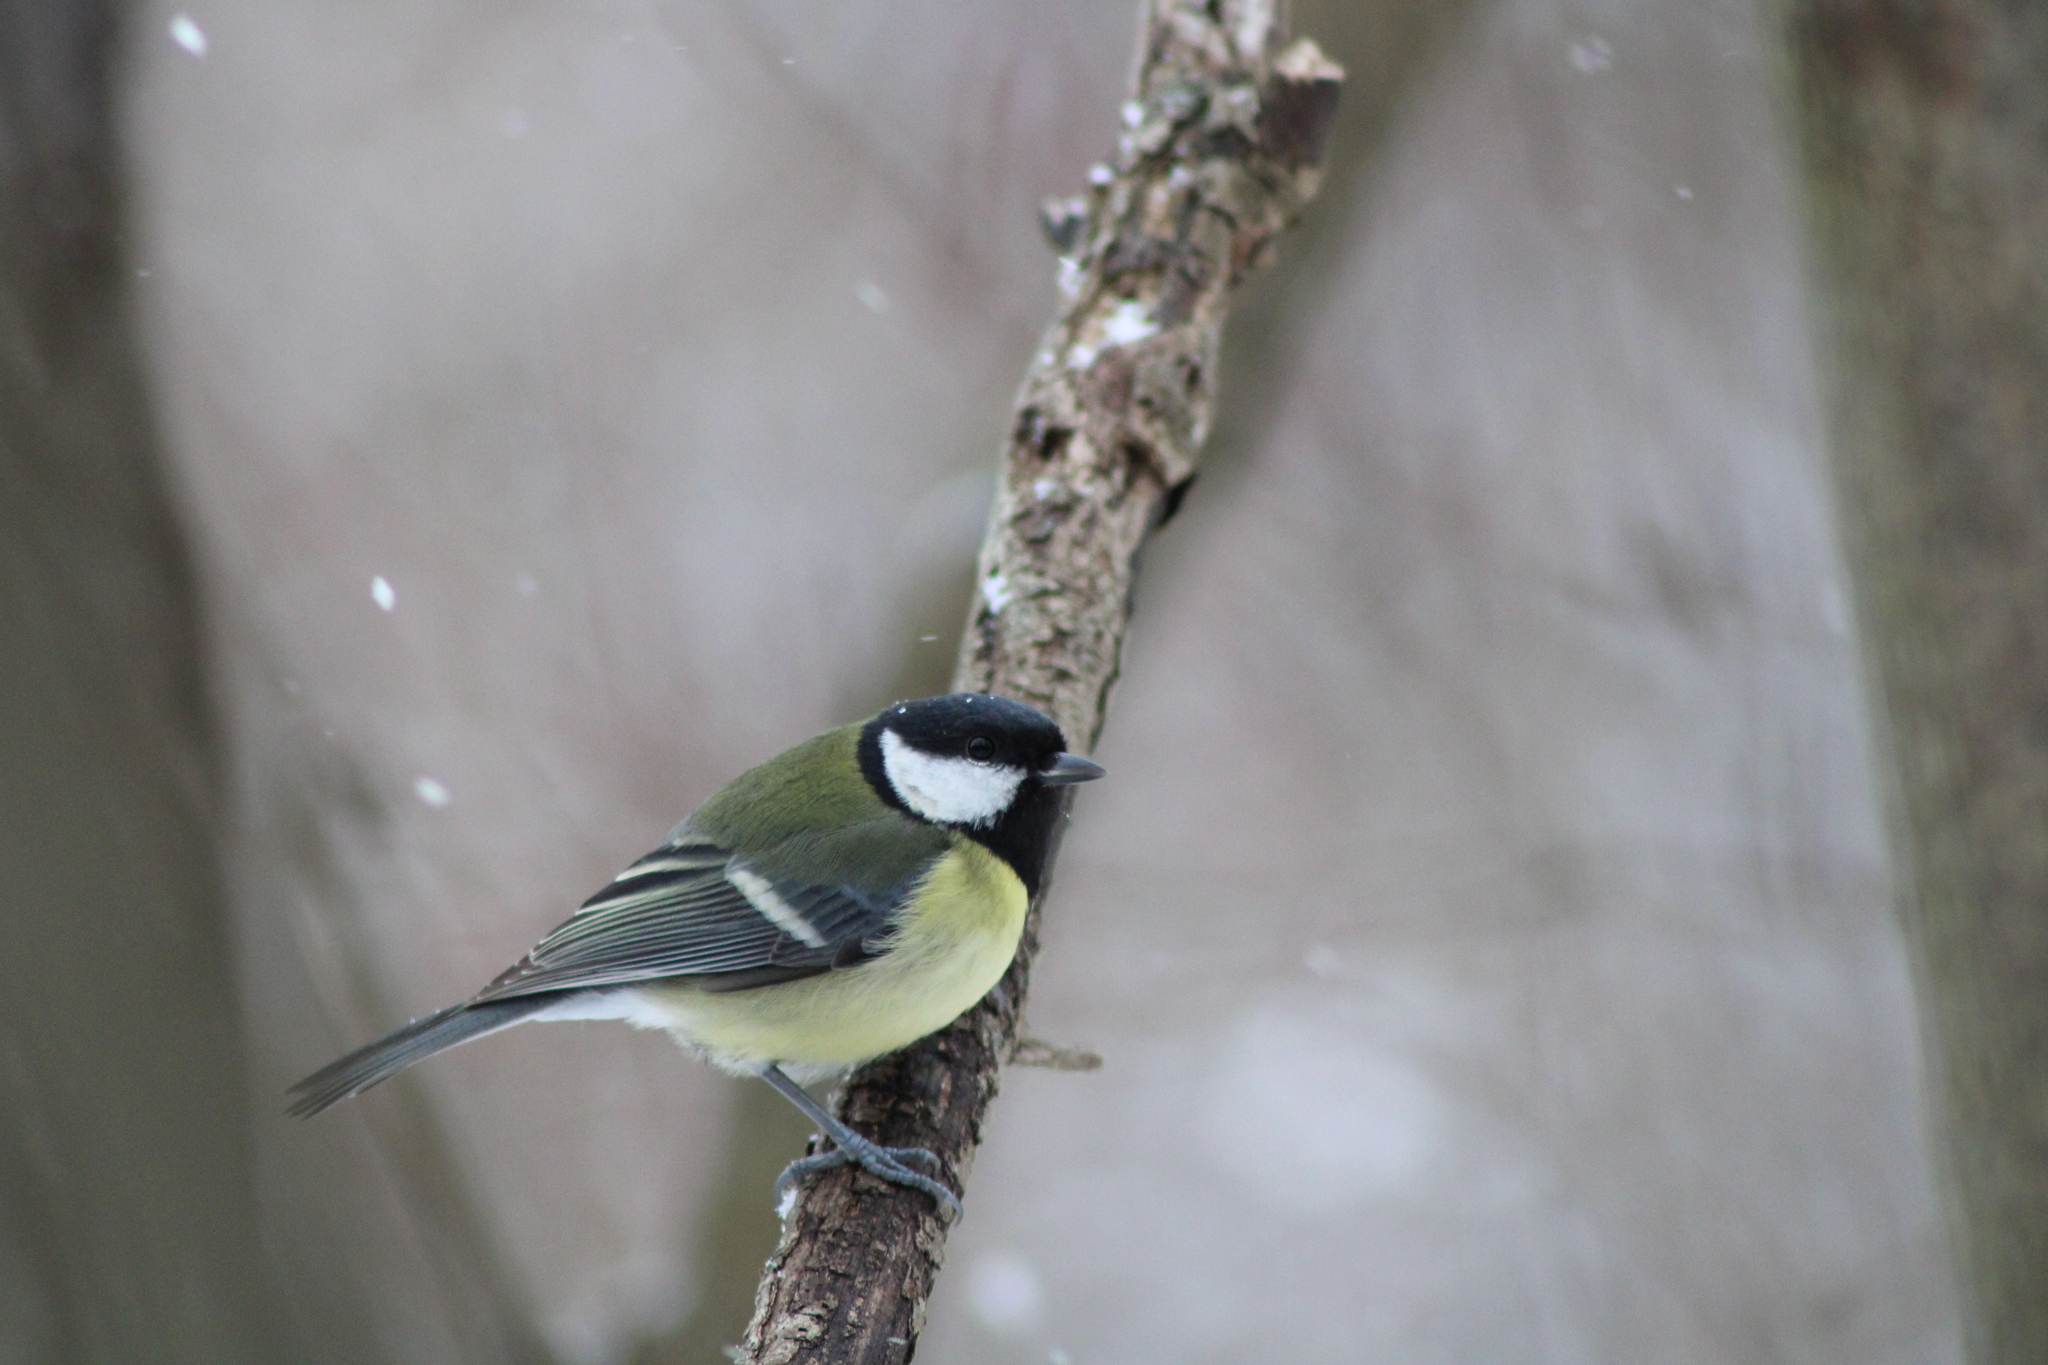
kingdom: Animalia
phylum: Chordata
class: Aves
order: Passeriformes
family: Paridae
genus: Parus
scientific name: Parus major
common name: Great tit
